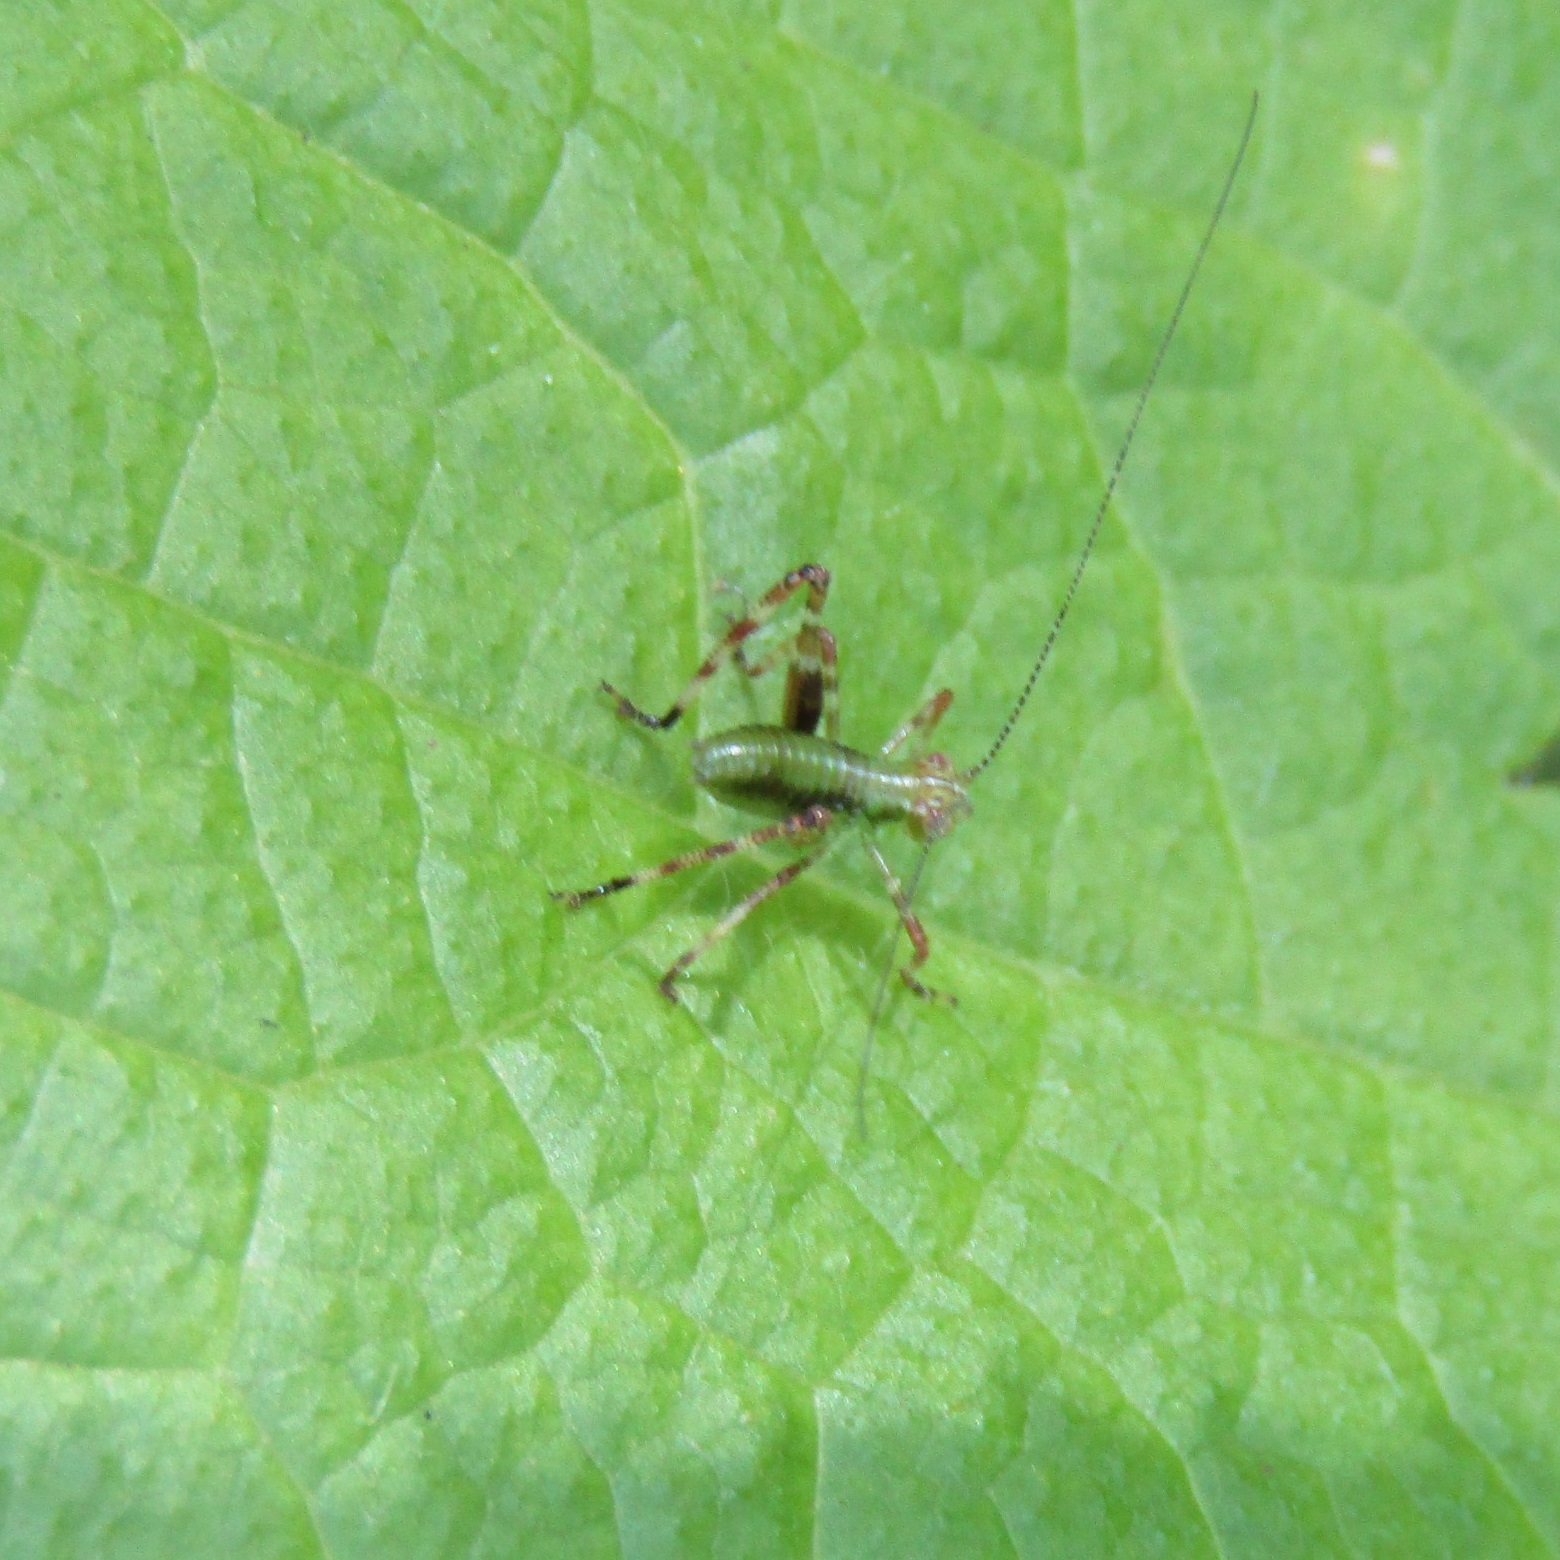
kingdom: Animalia
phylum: Arthropoda
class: Insecta
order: Orthoptera
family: Tettigoniidae
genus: Caedicia
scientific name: Caedicia simplex
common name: Common garden katydid
